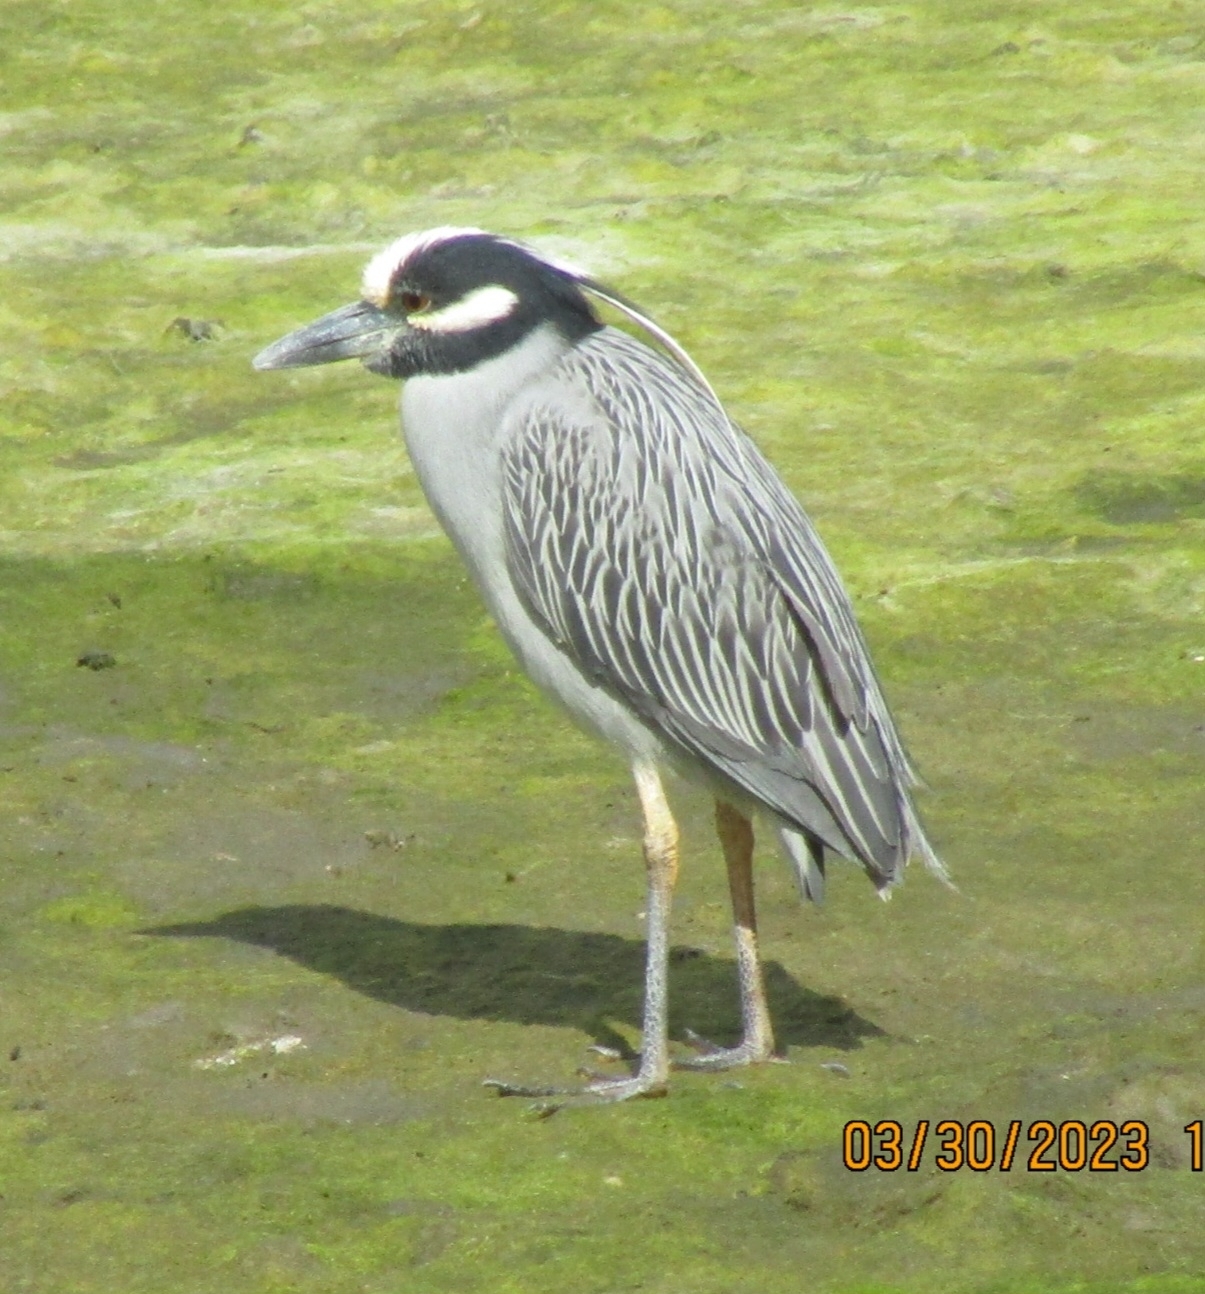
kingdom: Animalia
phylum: Chordata
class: Aves
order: Pelecaniformes
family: Ardeidae
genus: Nyctanassa
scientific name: Nyctanassa violacea
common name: Yellow-crowned night heron
